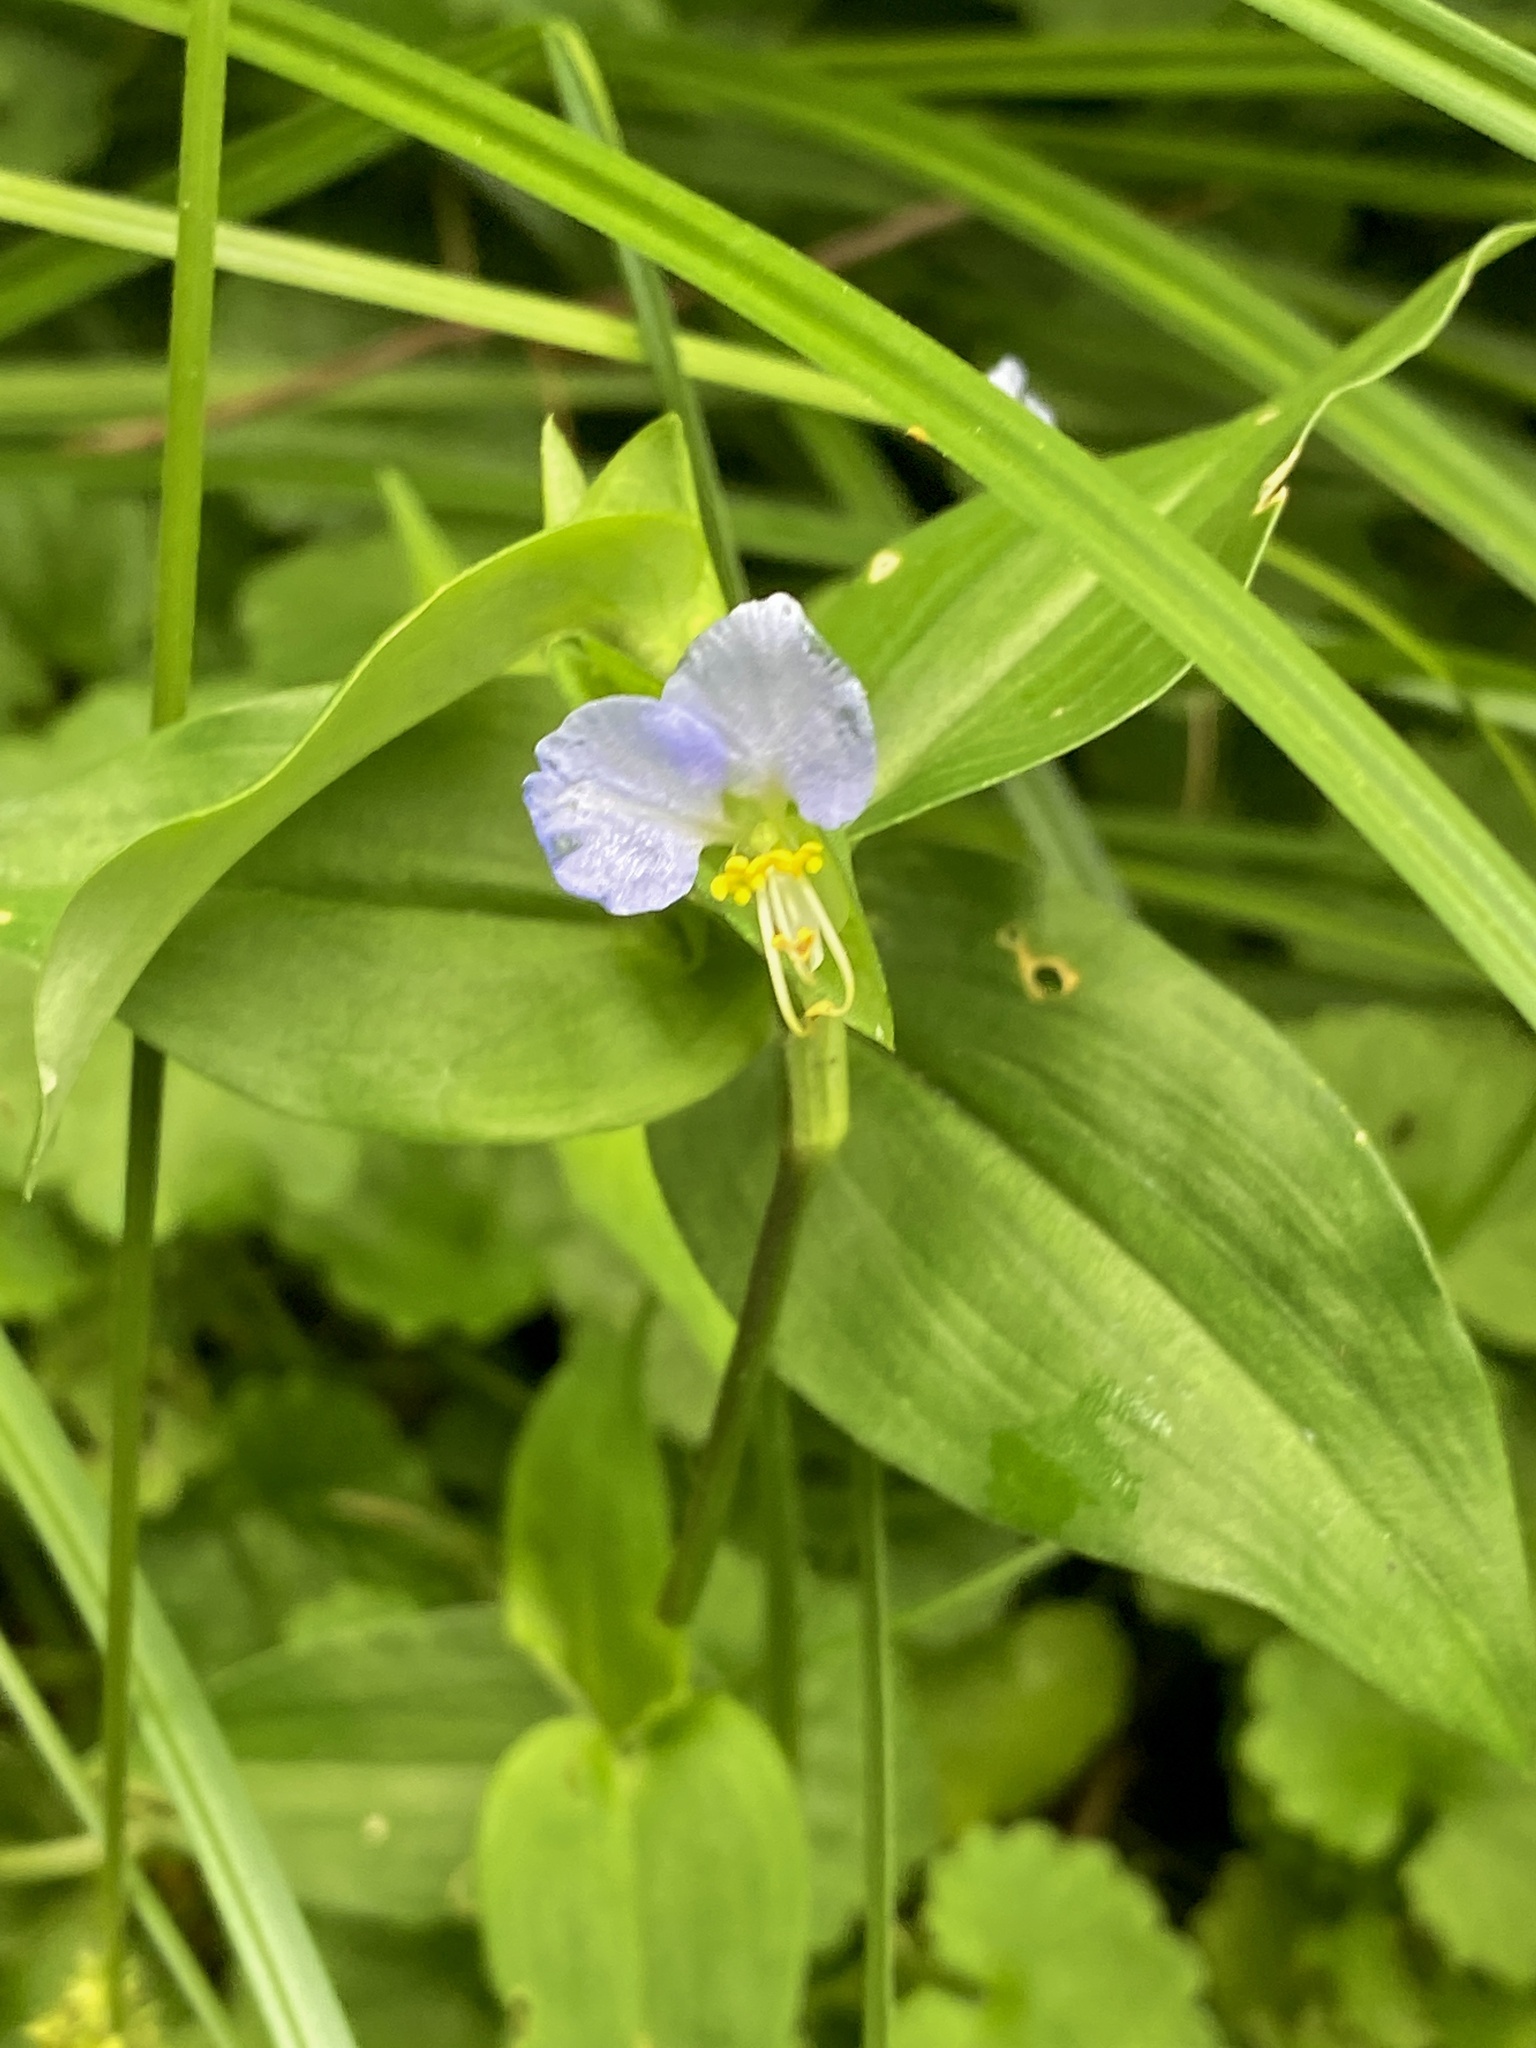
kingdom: Plantae
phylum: Tracheophyta
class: Liliopsida
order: Commelinales
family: Commelinaceae
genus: Commelina
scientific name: Commelina communis
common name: Asiatic dayflower
